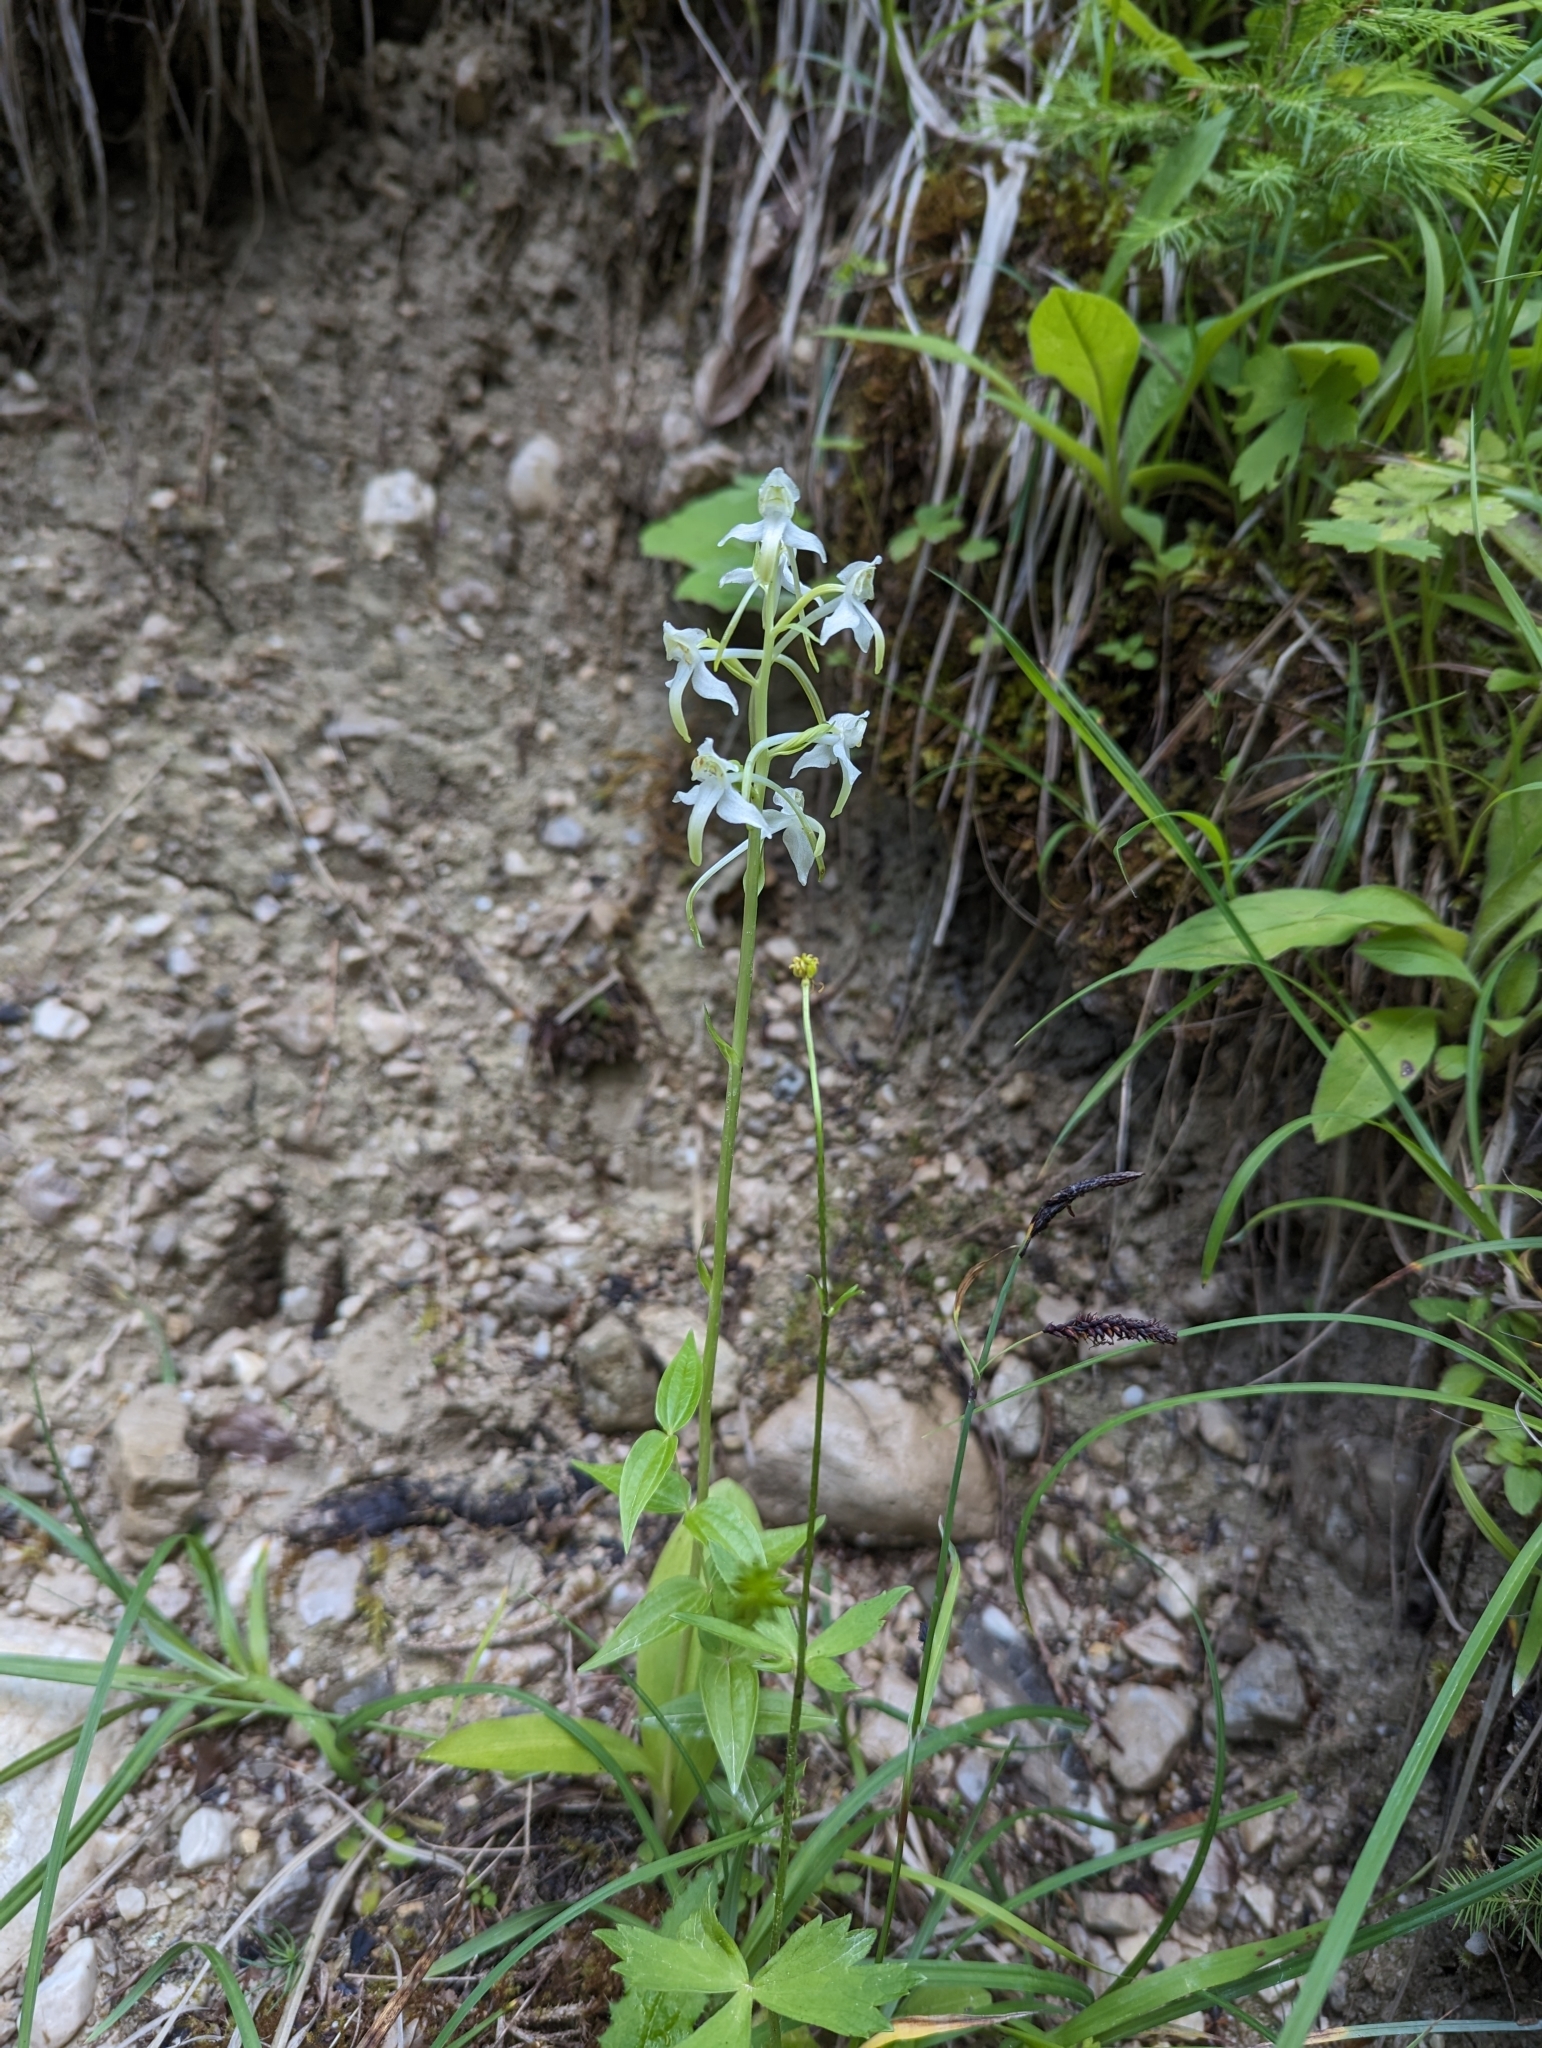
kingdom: Plantae
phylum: Tracheophyta
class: Liliopsida
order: Asparagales
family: Orchidaceae
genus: Platanthera
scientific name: Platanthera chlorantha
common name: Greater butterfly-orchid
